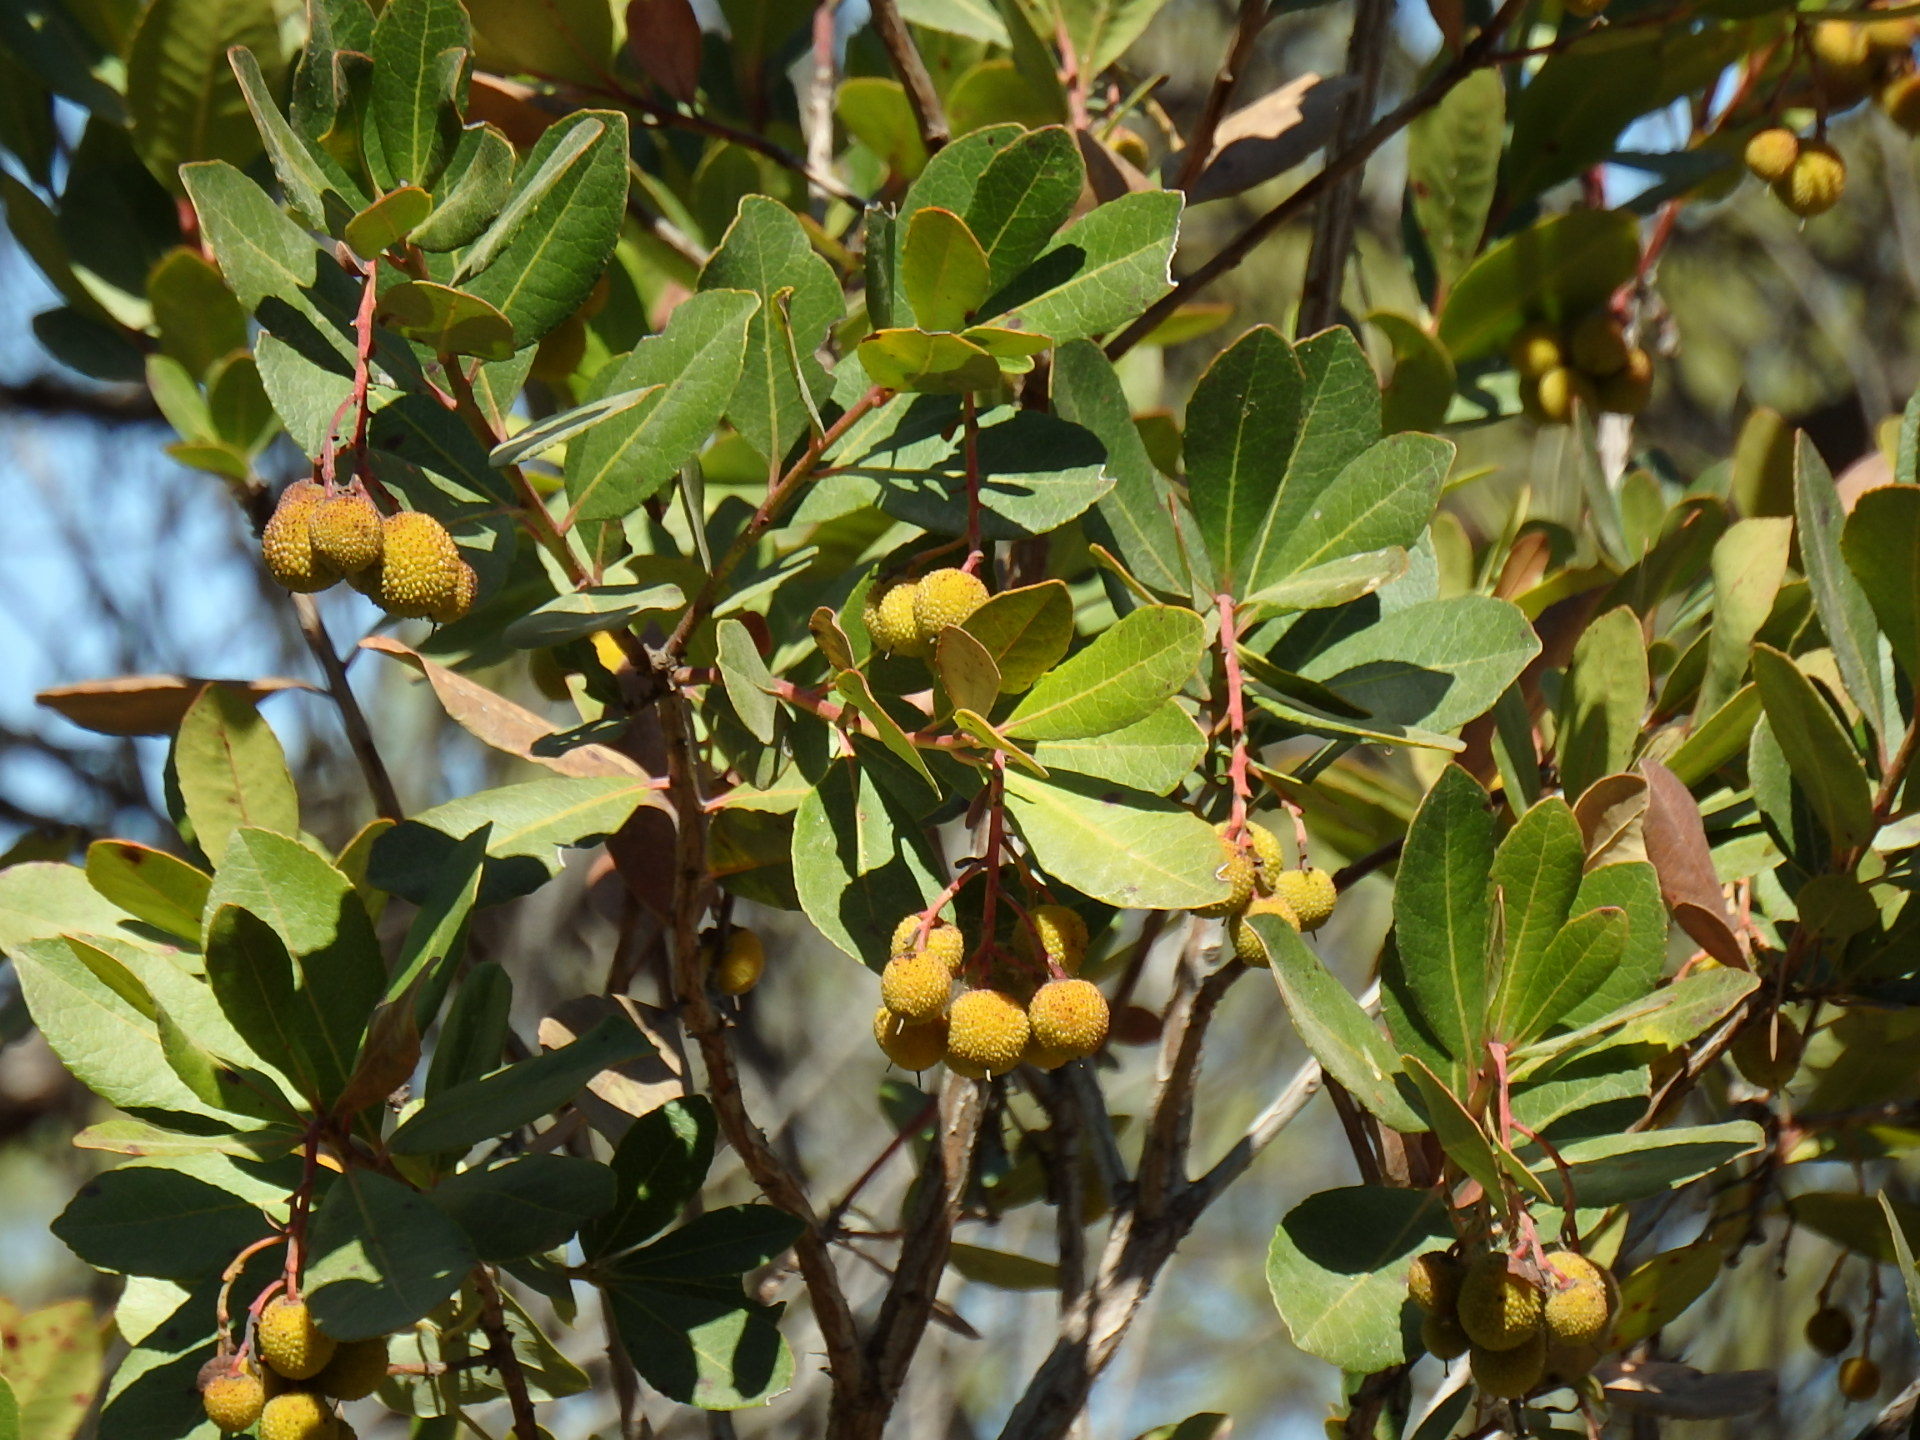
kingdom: Plantae
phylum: Tracheophyta
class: Magnoliopsida
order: Ericales
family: Ericaceae
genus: Arbutus
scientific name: Arbutus unedo
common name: Strawberry-tree
